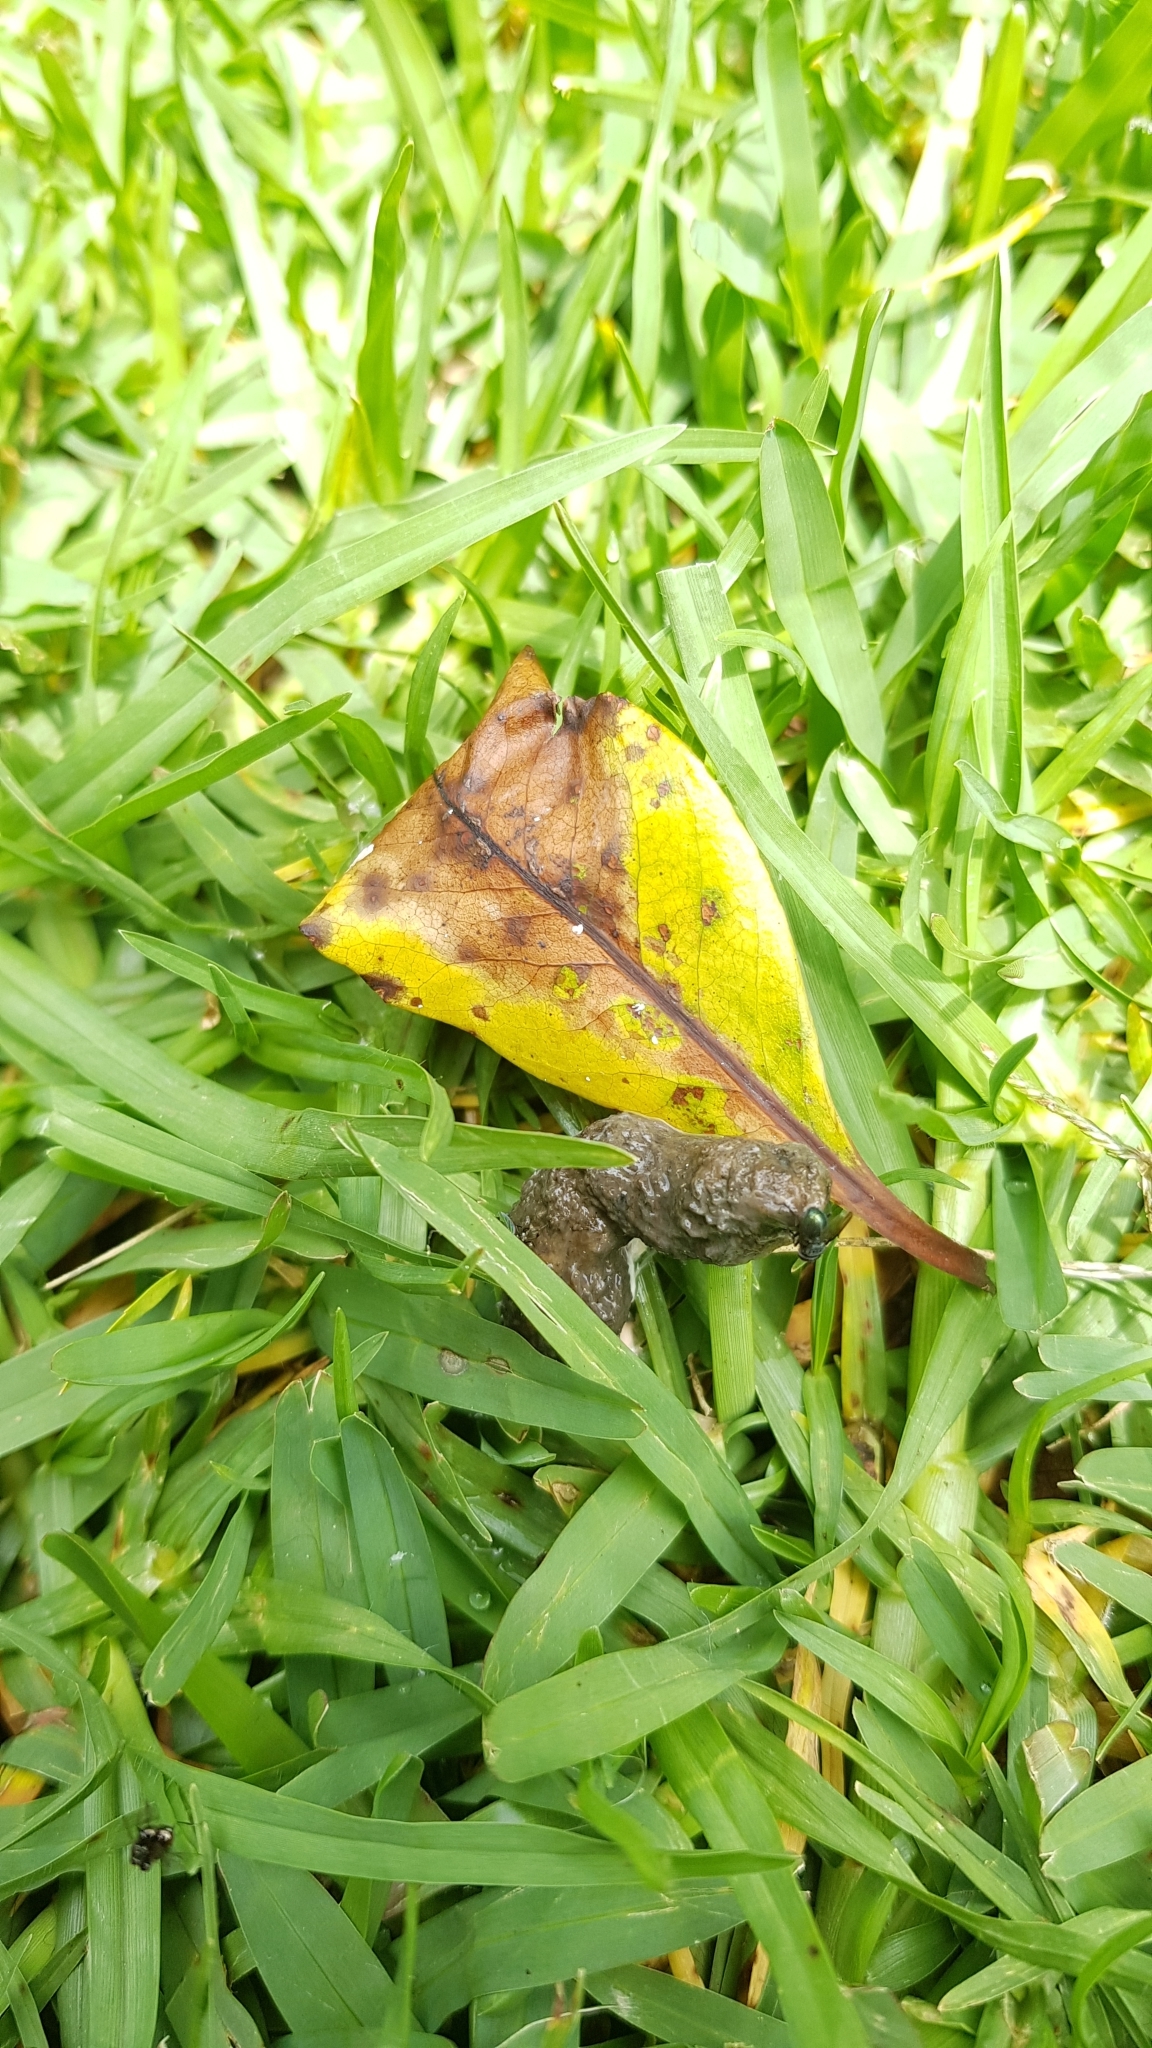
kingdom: Animalia
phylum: Chordata
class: Squamata
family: Agamidae
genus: Intellagama
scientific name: Intellagama lesueurii
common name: Eastern water dragon
